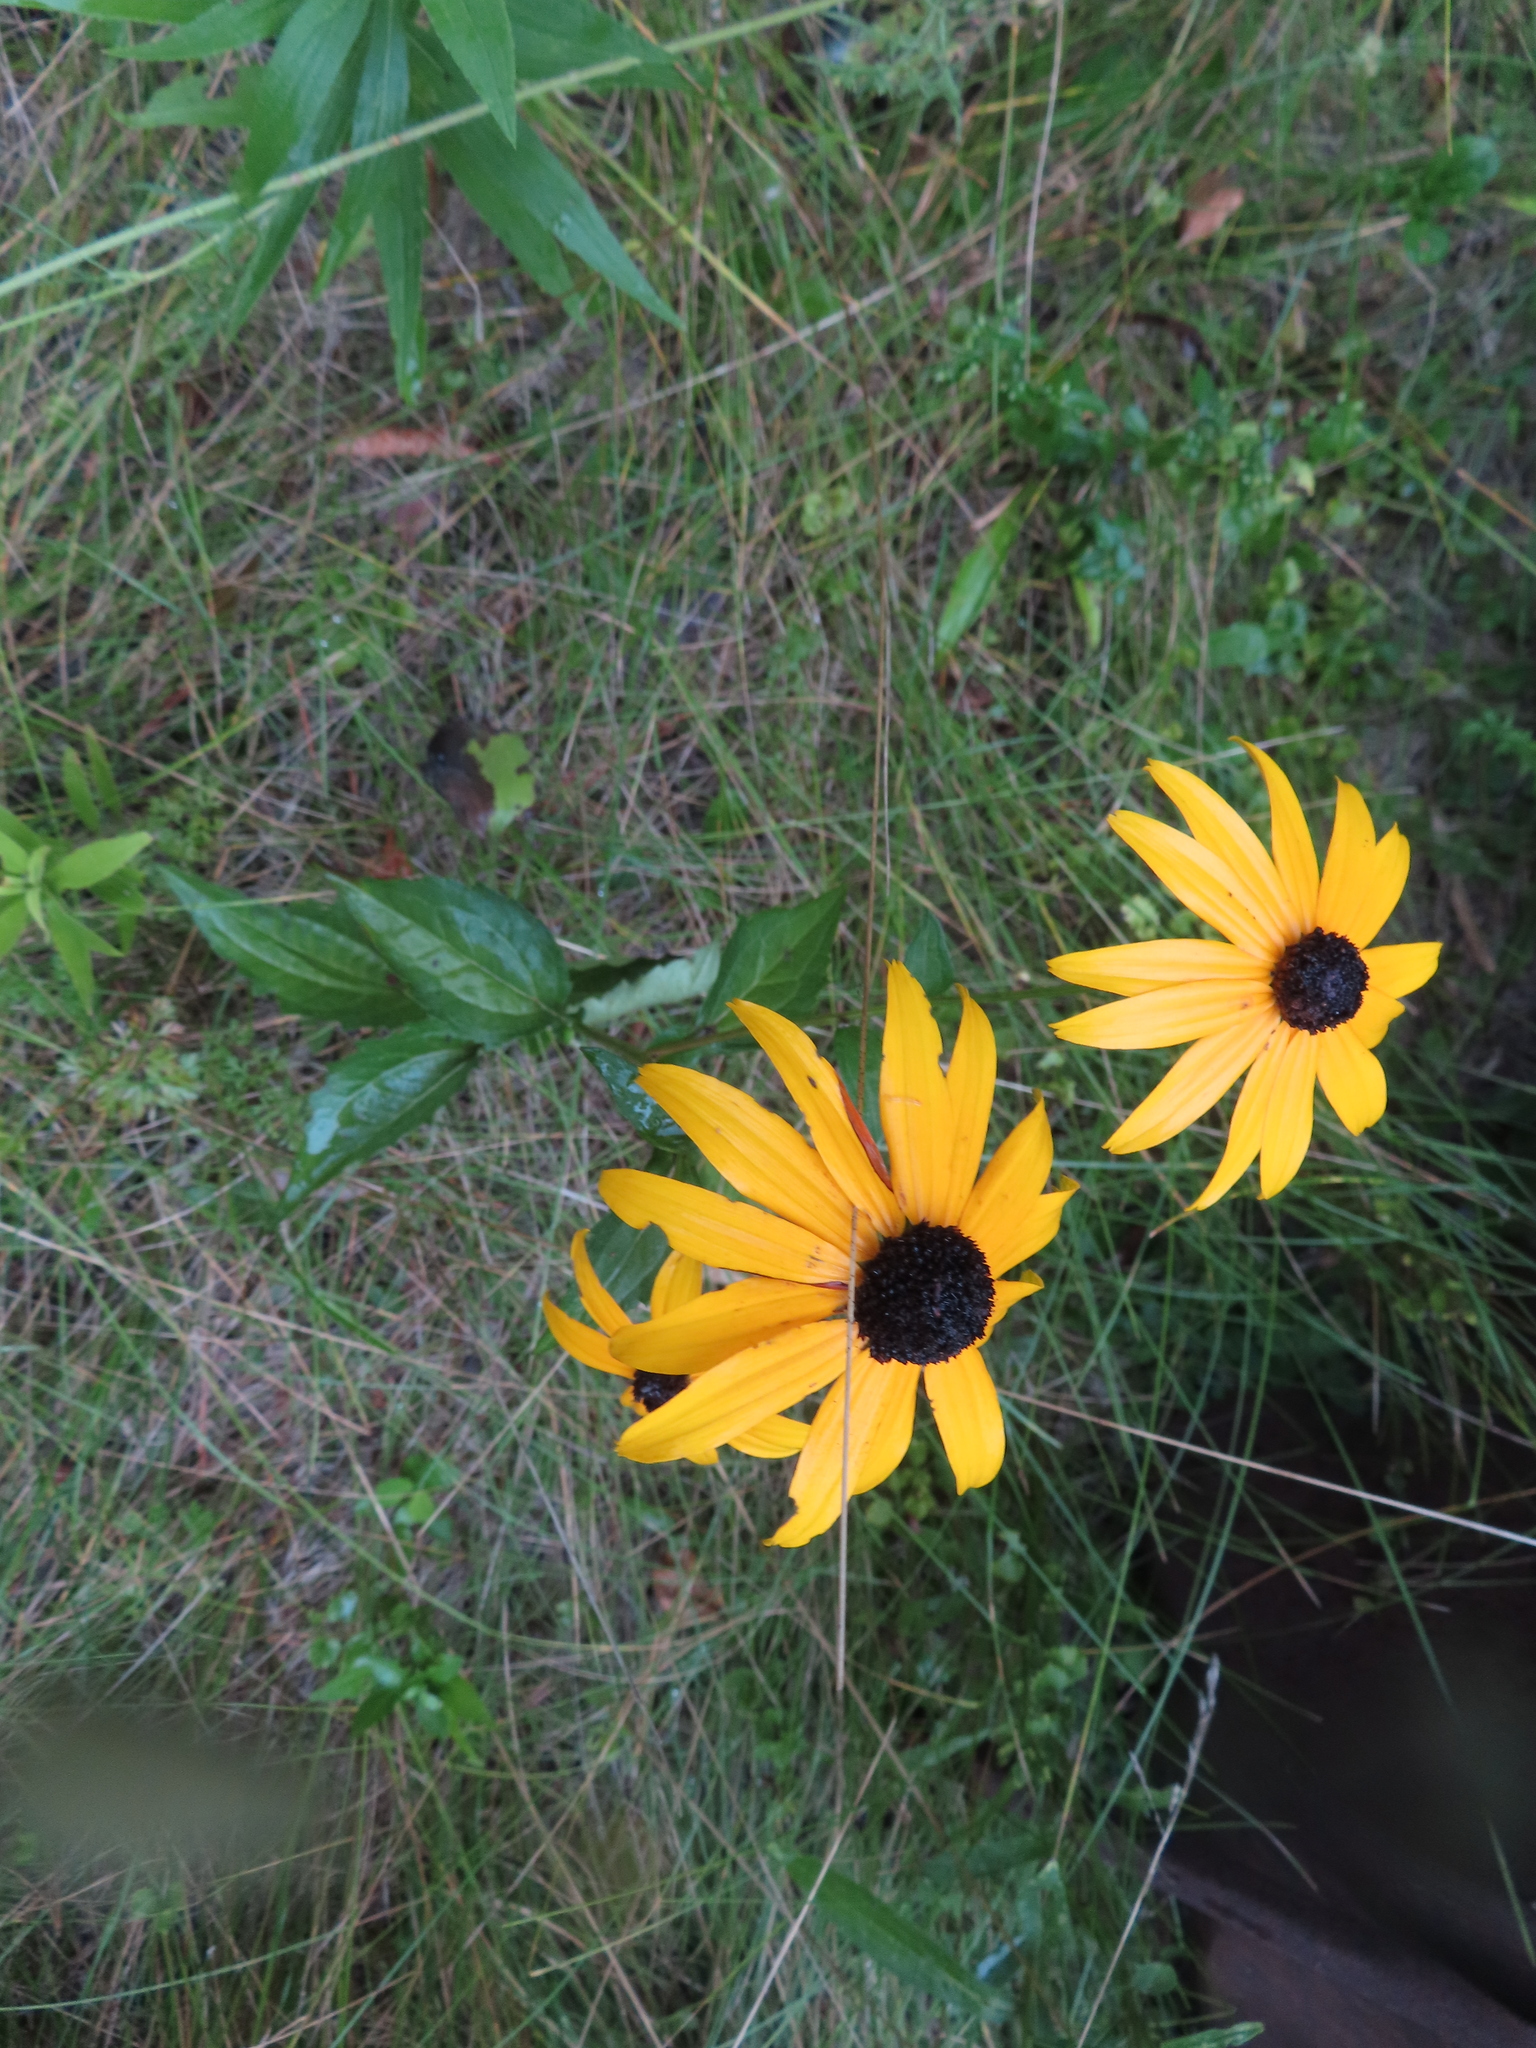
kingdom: Plantae
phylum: Tracheophyta
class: Magnoliopsida
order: Asterales
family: Asteraceae
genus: Rudbeckia
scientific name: Rudbeckia hirta
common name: Black-eyed-susan
